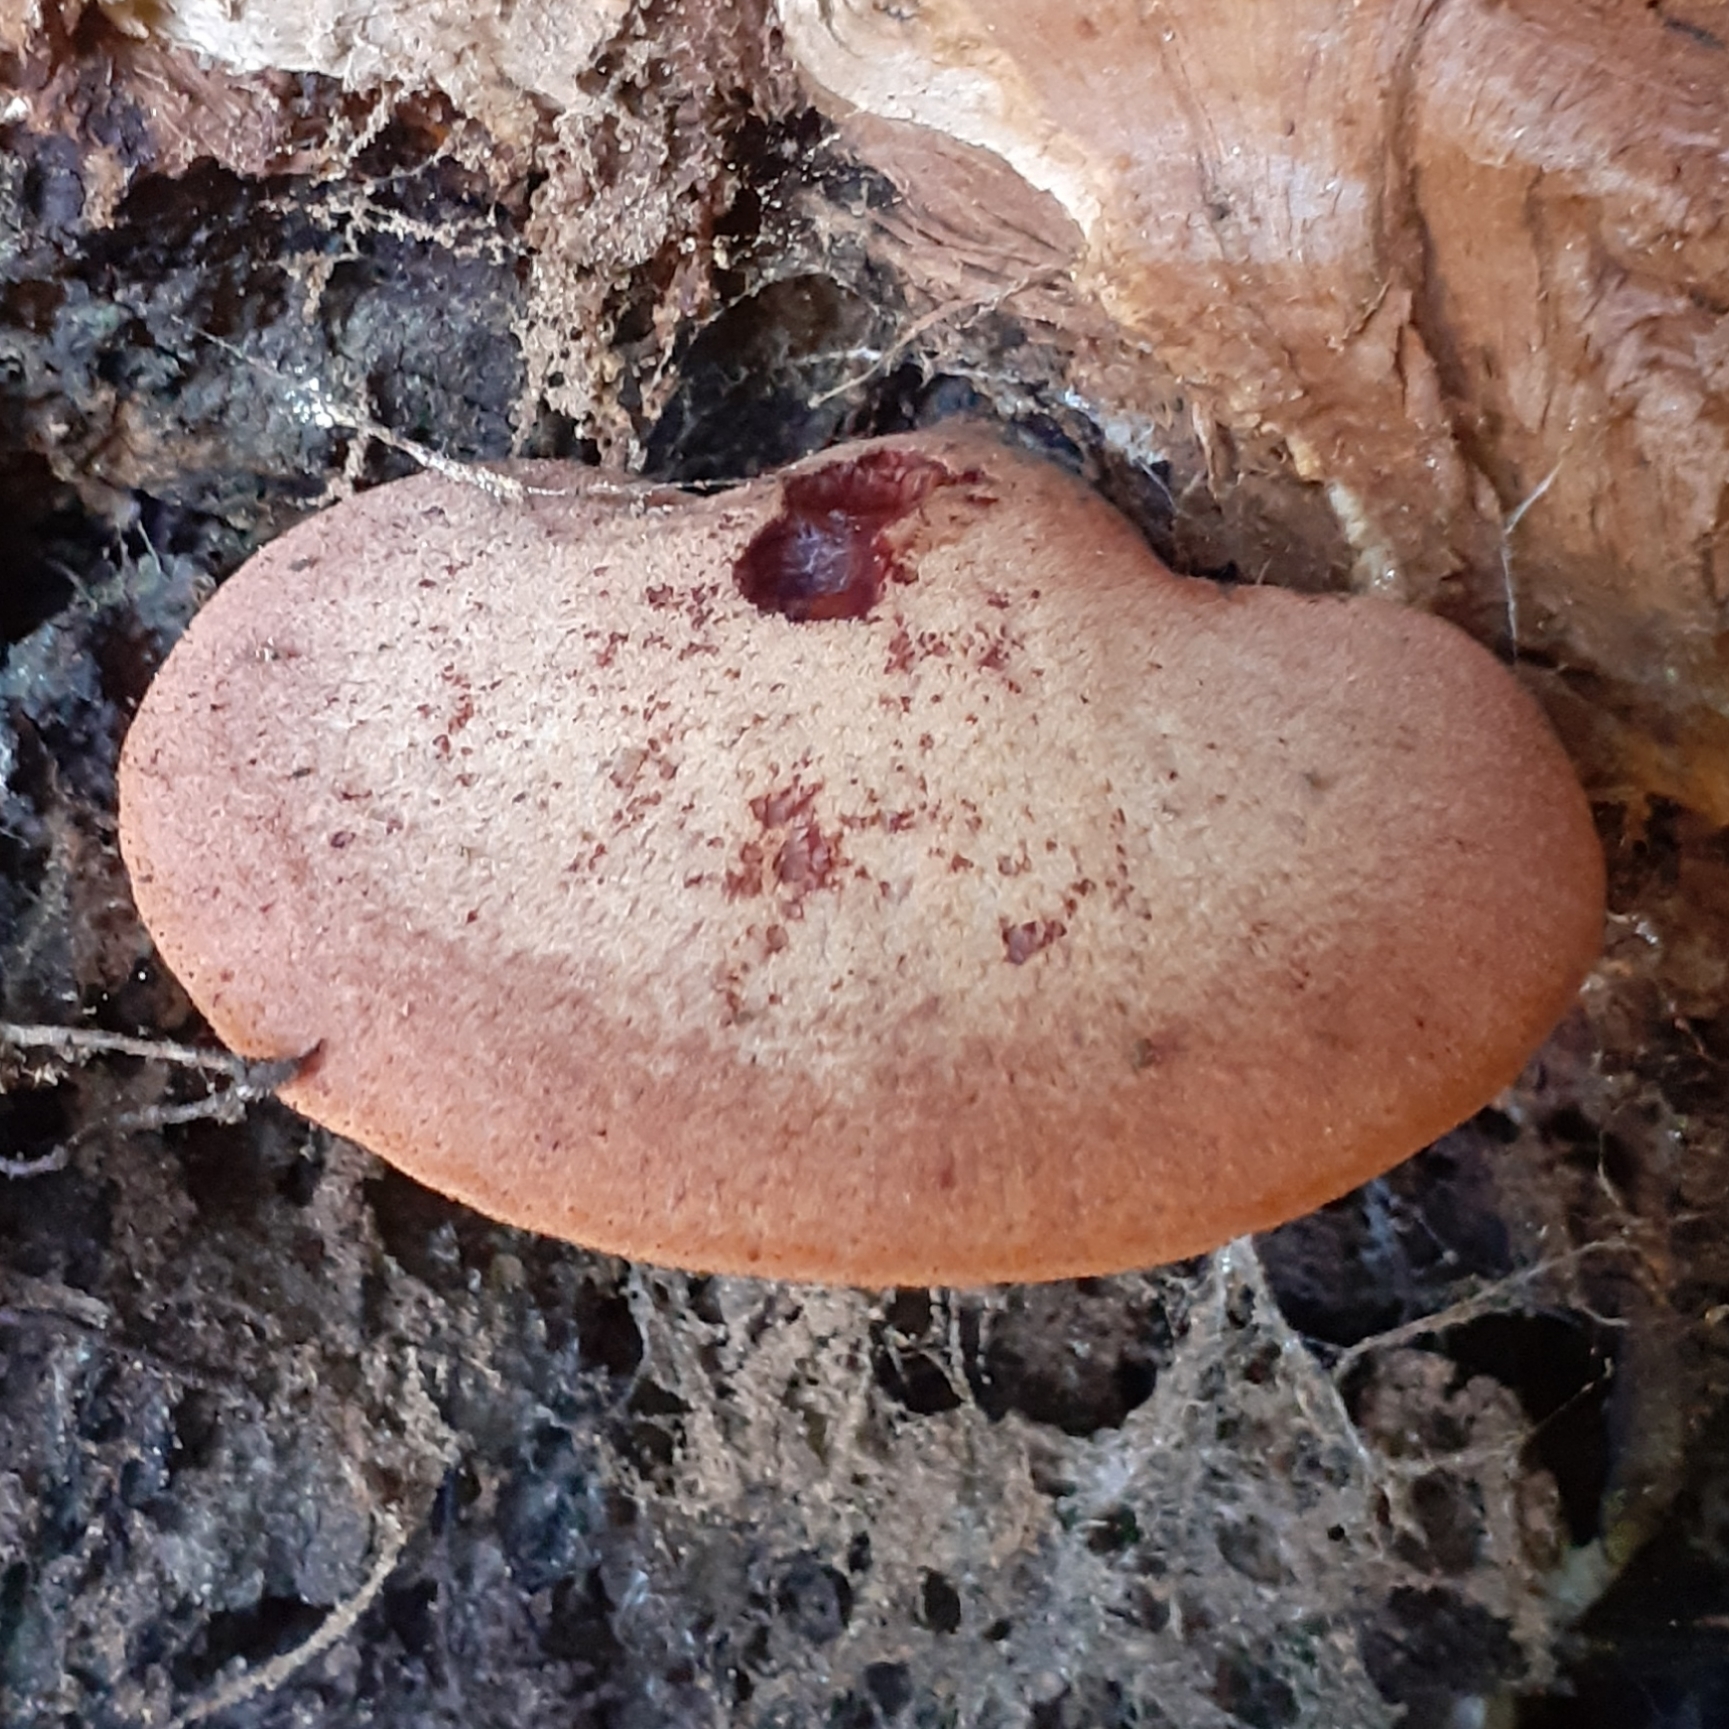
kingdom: Fungi
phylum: Basidiomycota
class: Agaricomycetes
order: Agaricales
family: Fistulinaceae
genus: Fistulina
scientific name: Fistulina hepatica
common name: Beef-steak fungus
